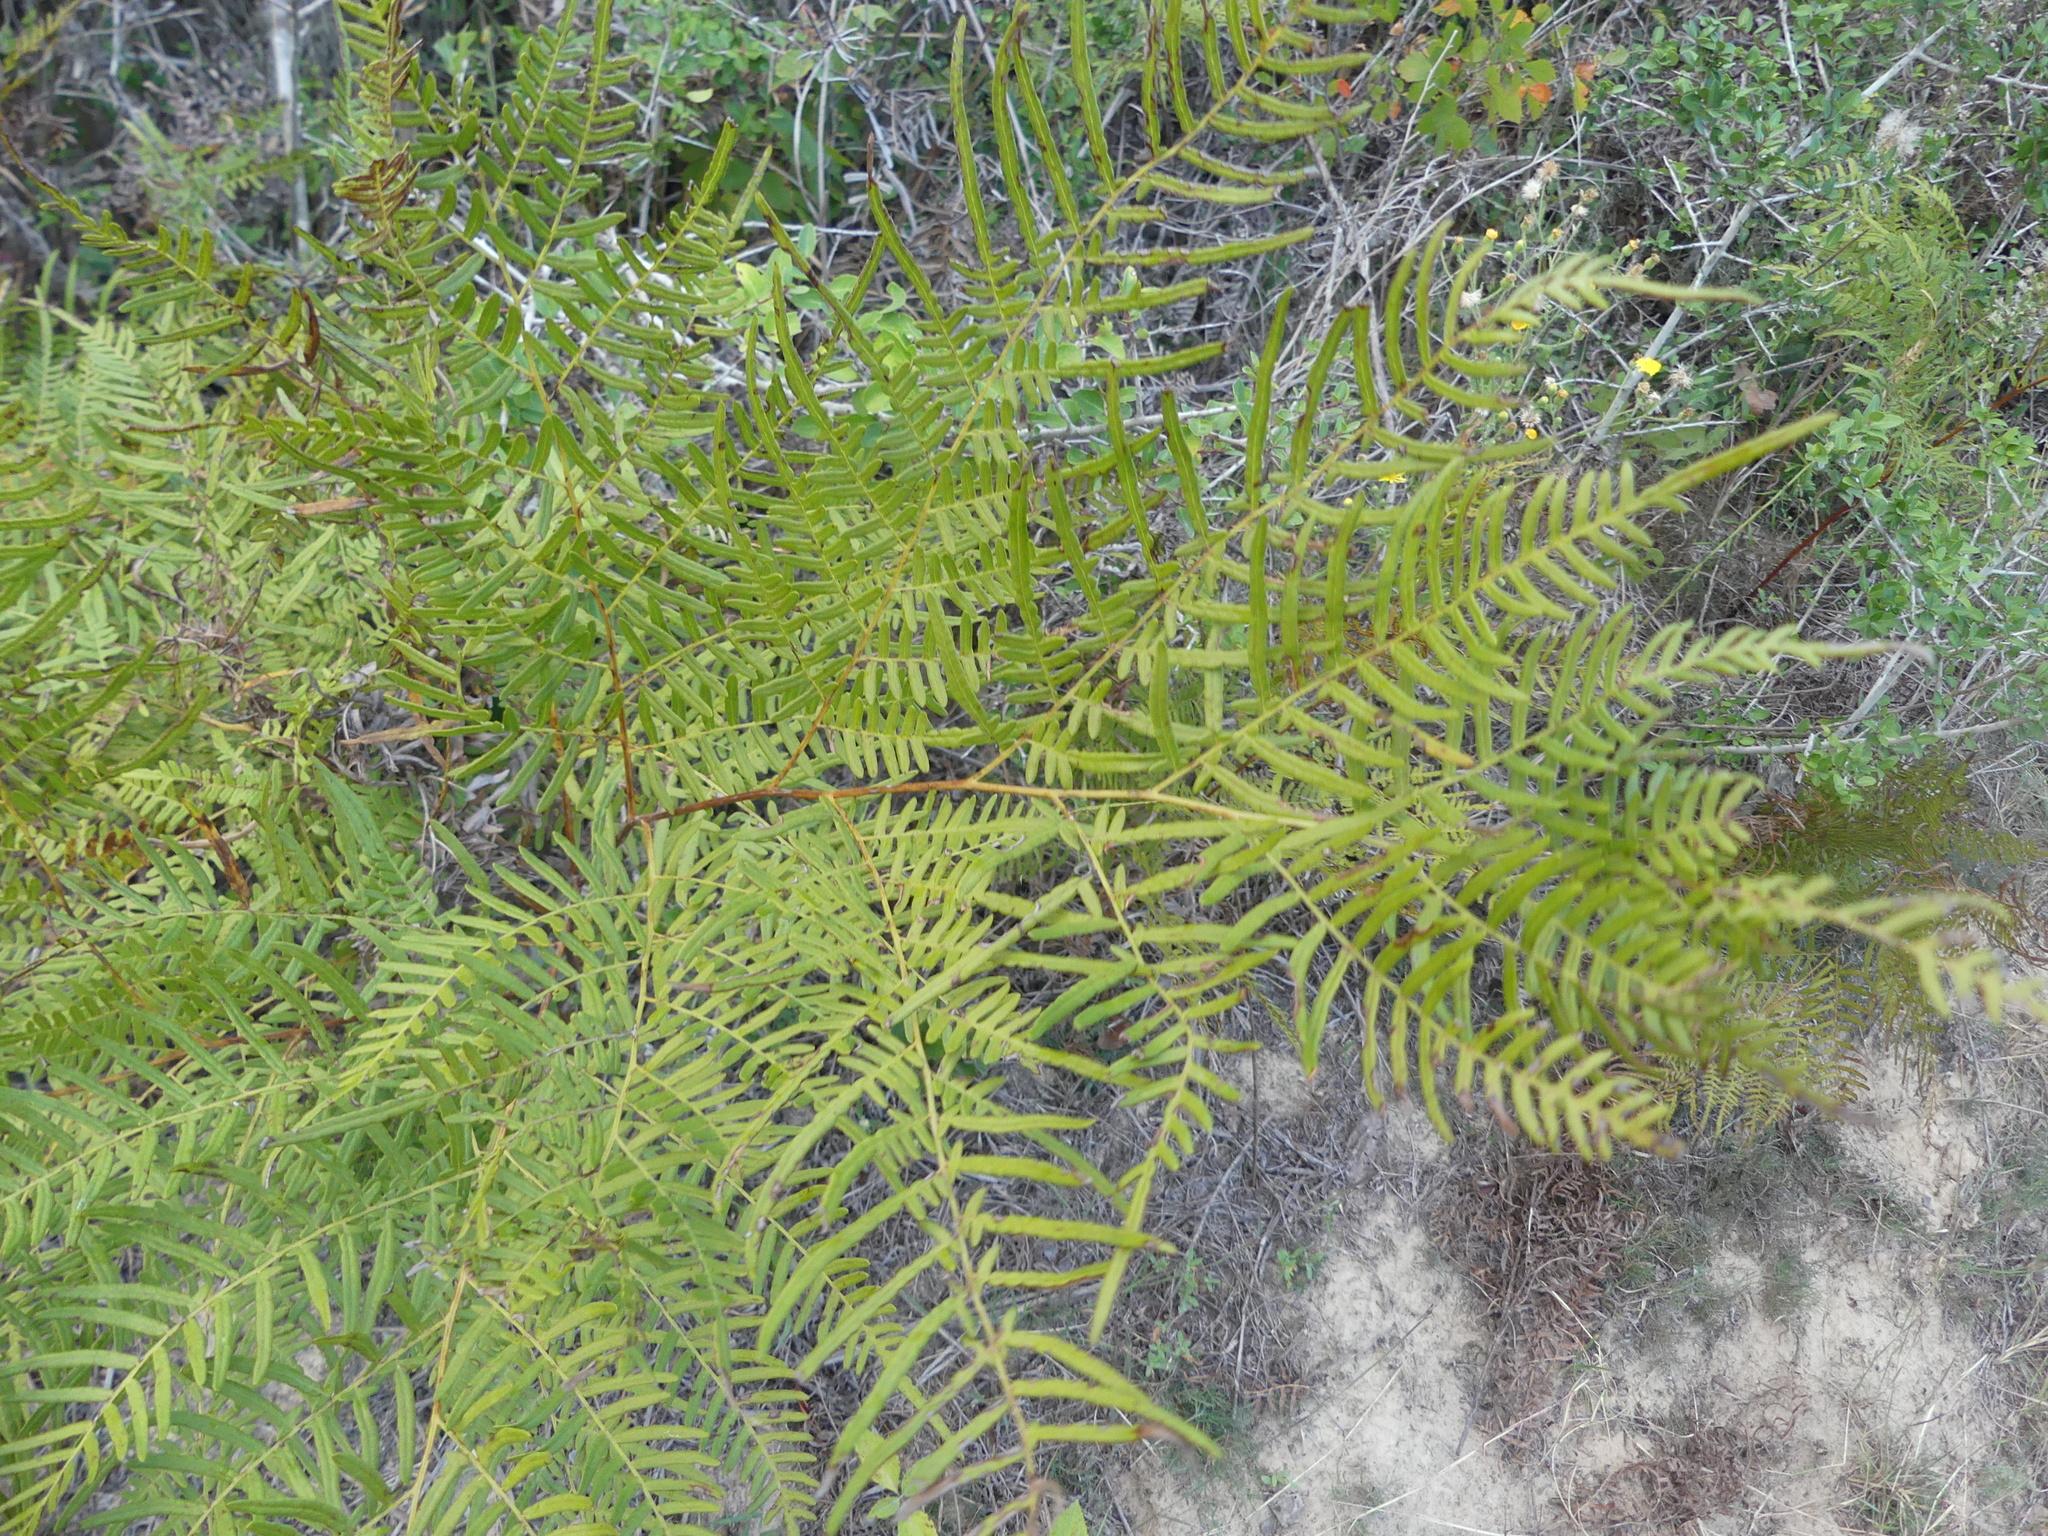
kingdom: Plantae
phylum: Tracheophyta
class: Polypodiopsida
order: Polypodiales
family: Dennstaedtiaceae
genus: Pteridium
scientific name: Pteridium
